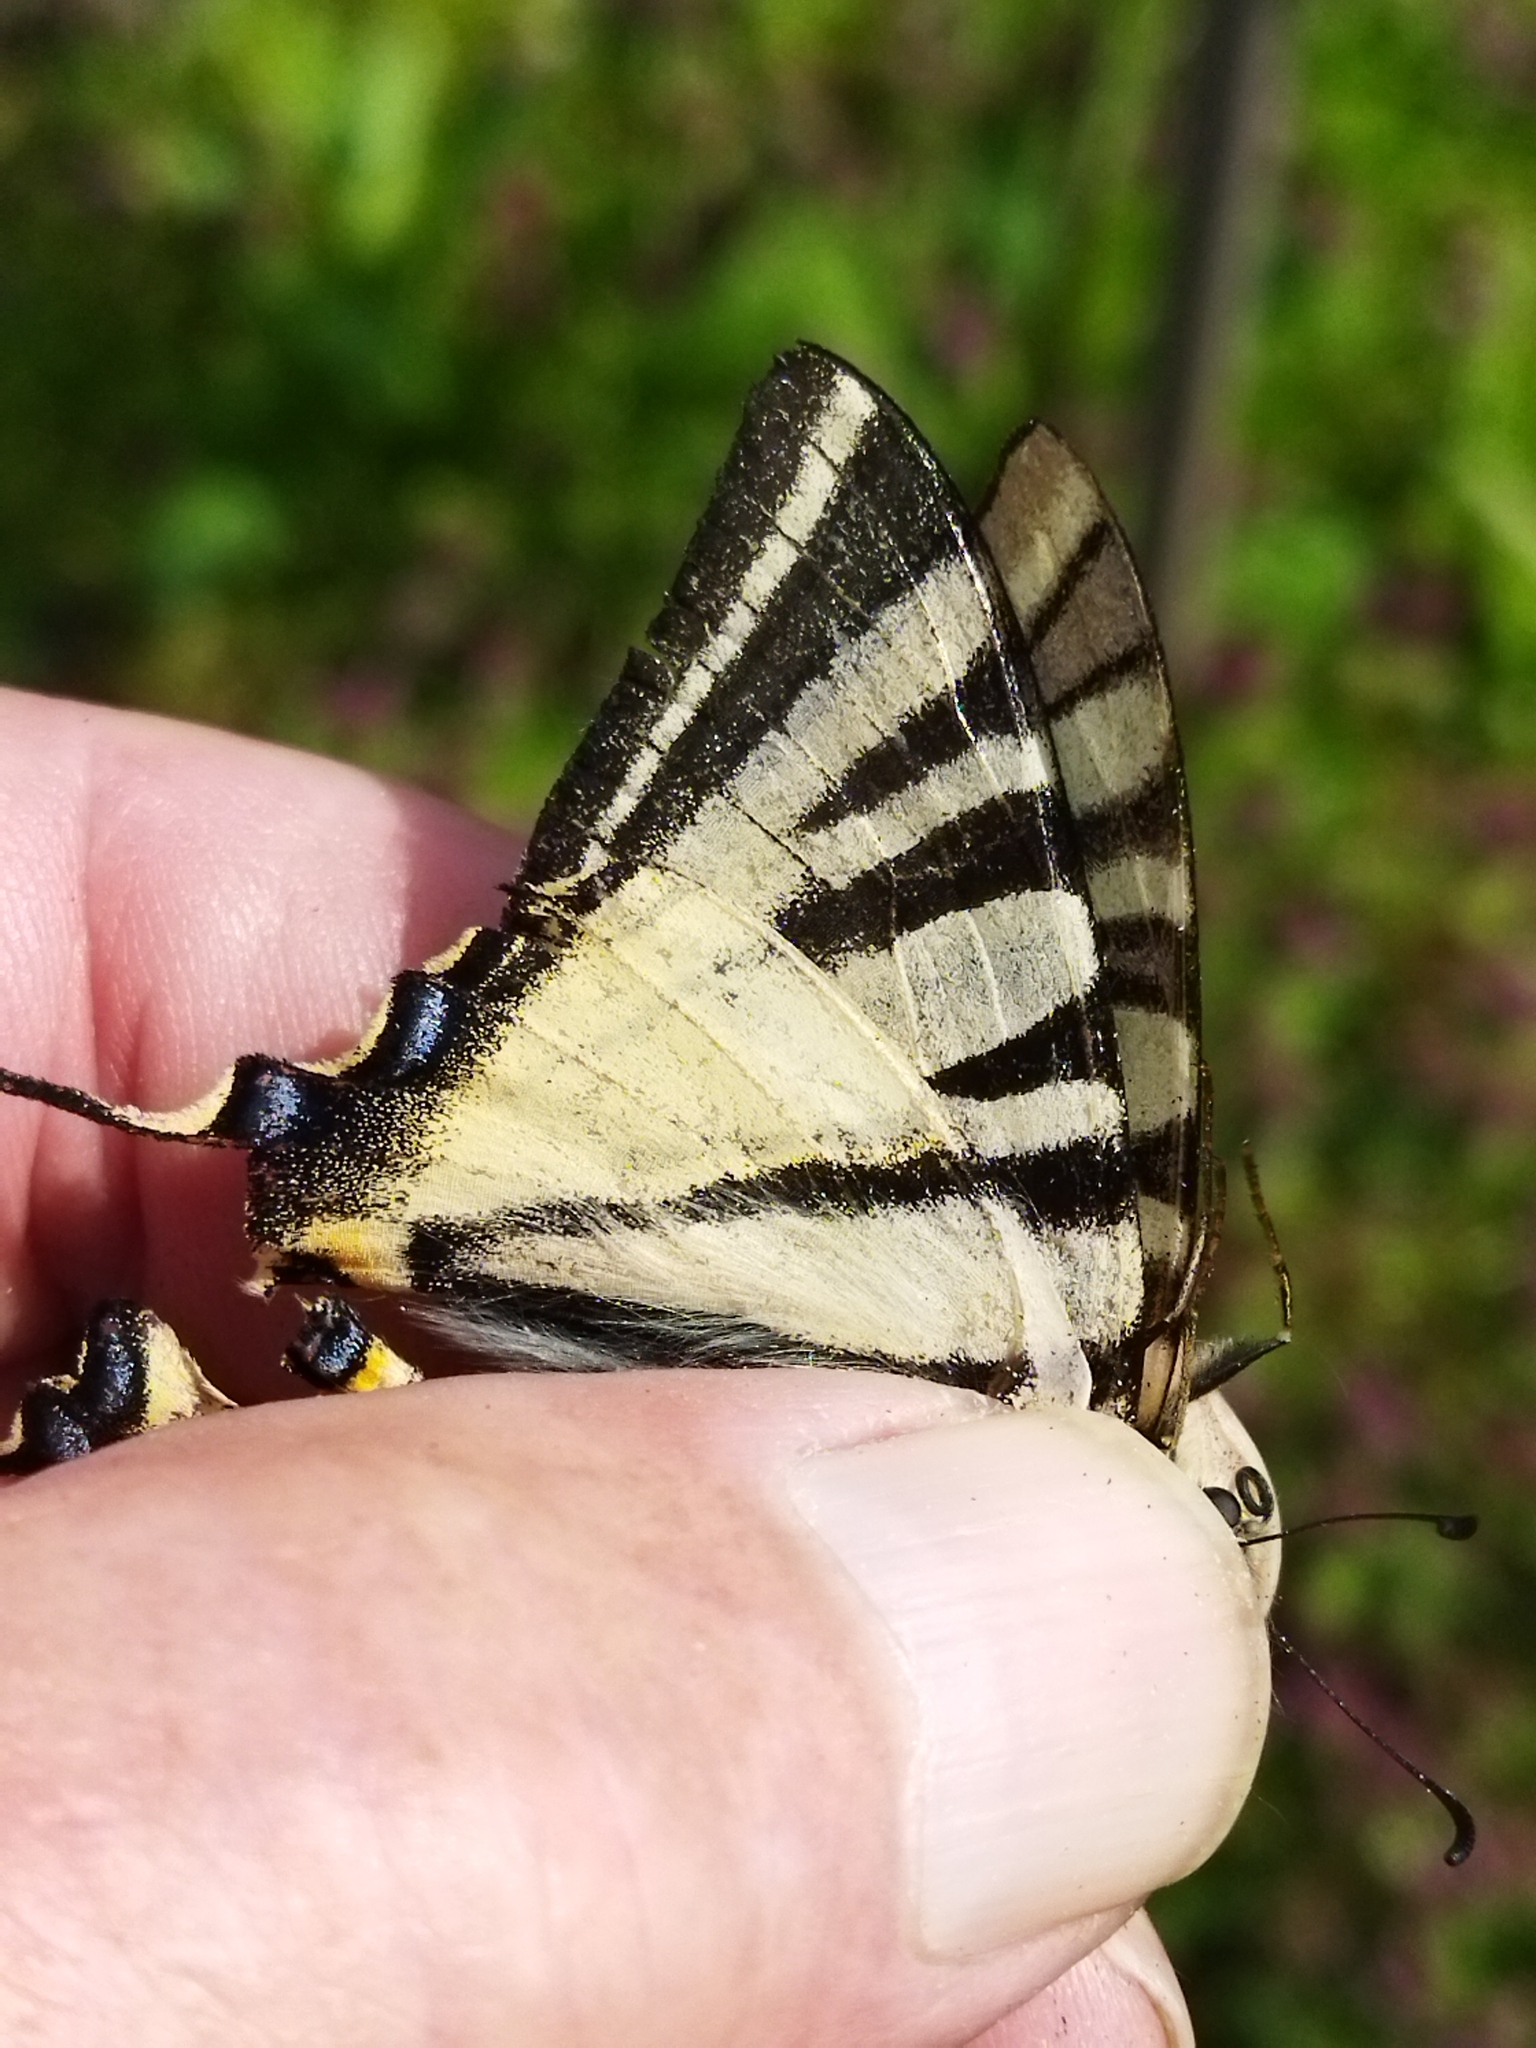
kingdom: Animalia
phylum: Arthropoda
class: Insecta
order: Lepidoptera
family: Papilionidae
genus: Iphiclides
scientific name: Iphiclides podalirius
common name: Scarce swallowtail
